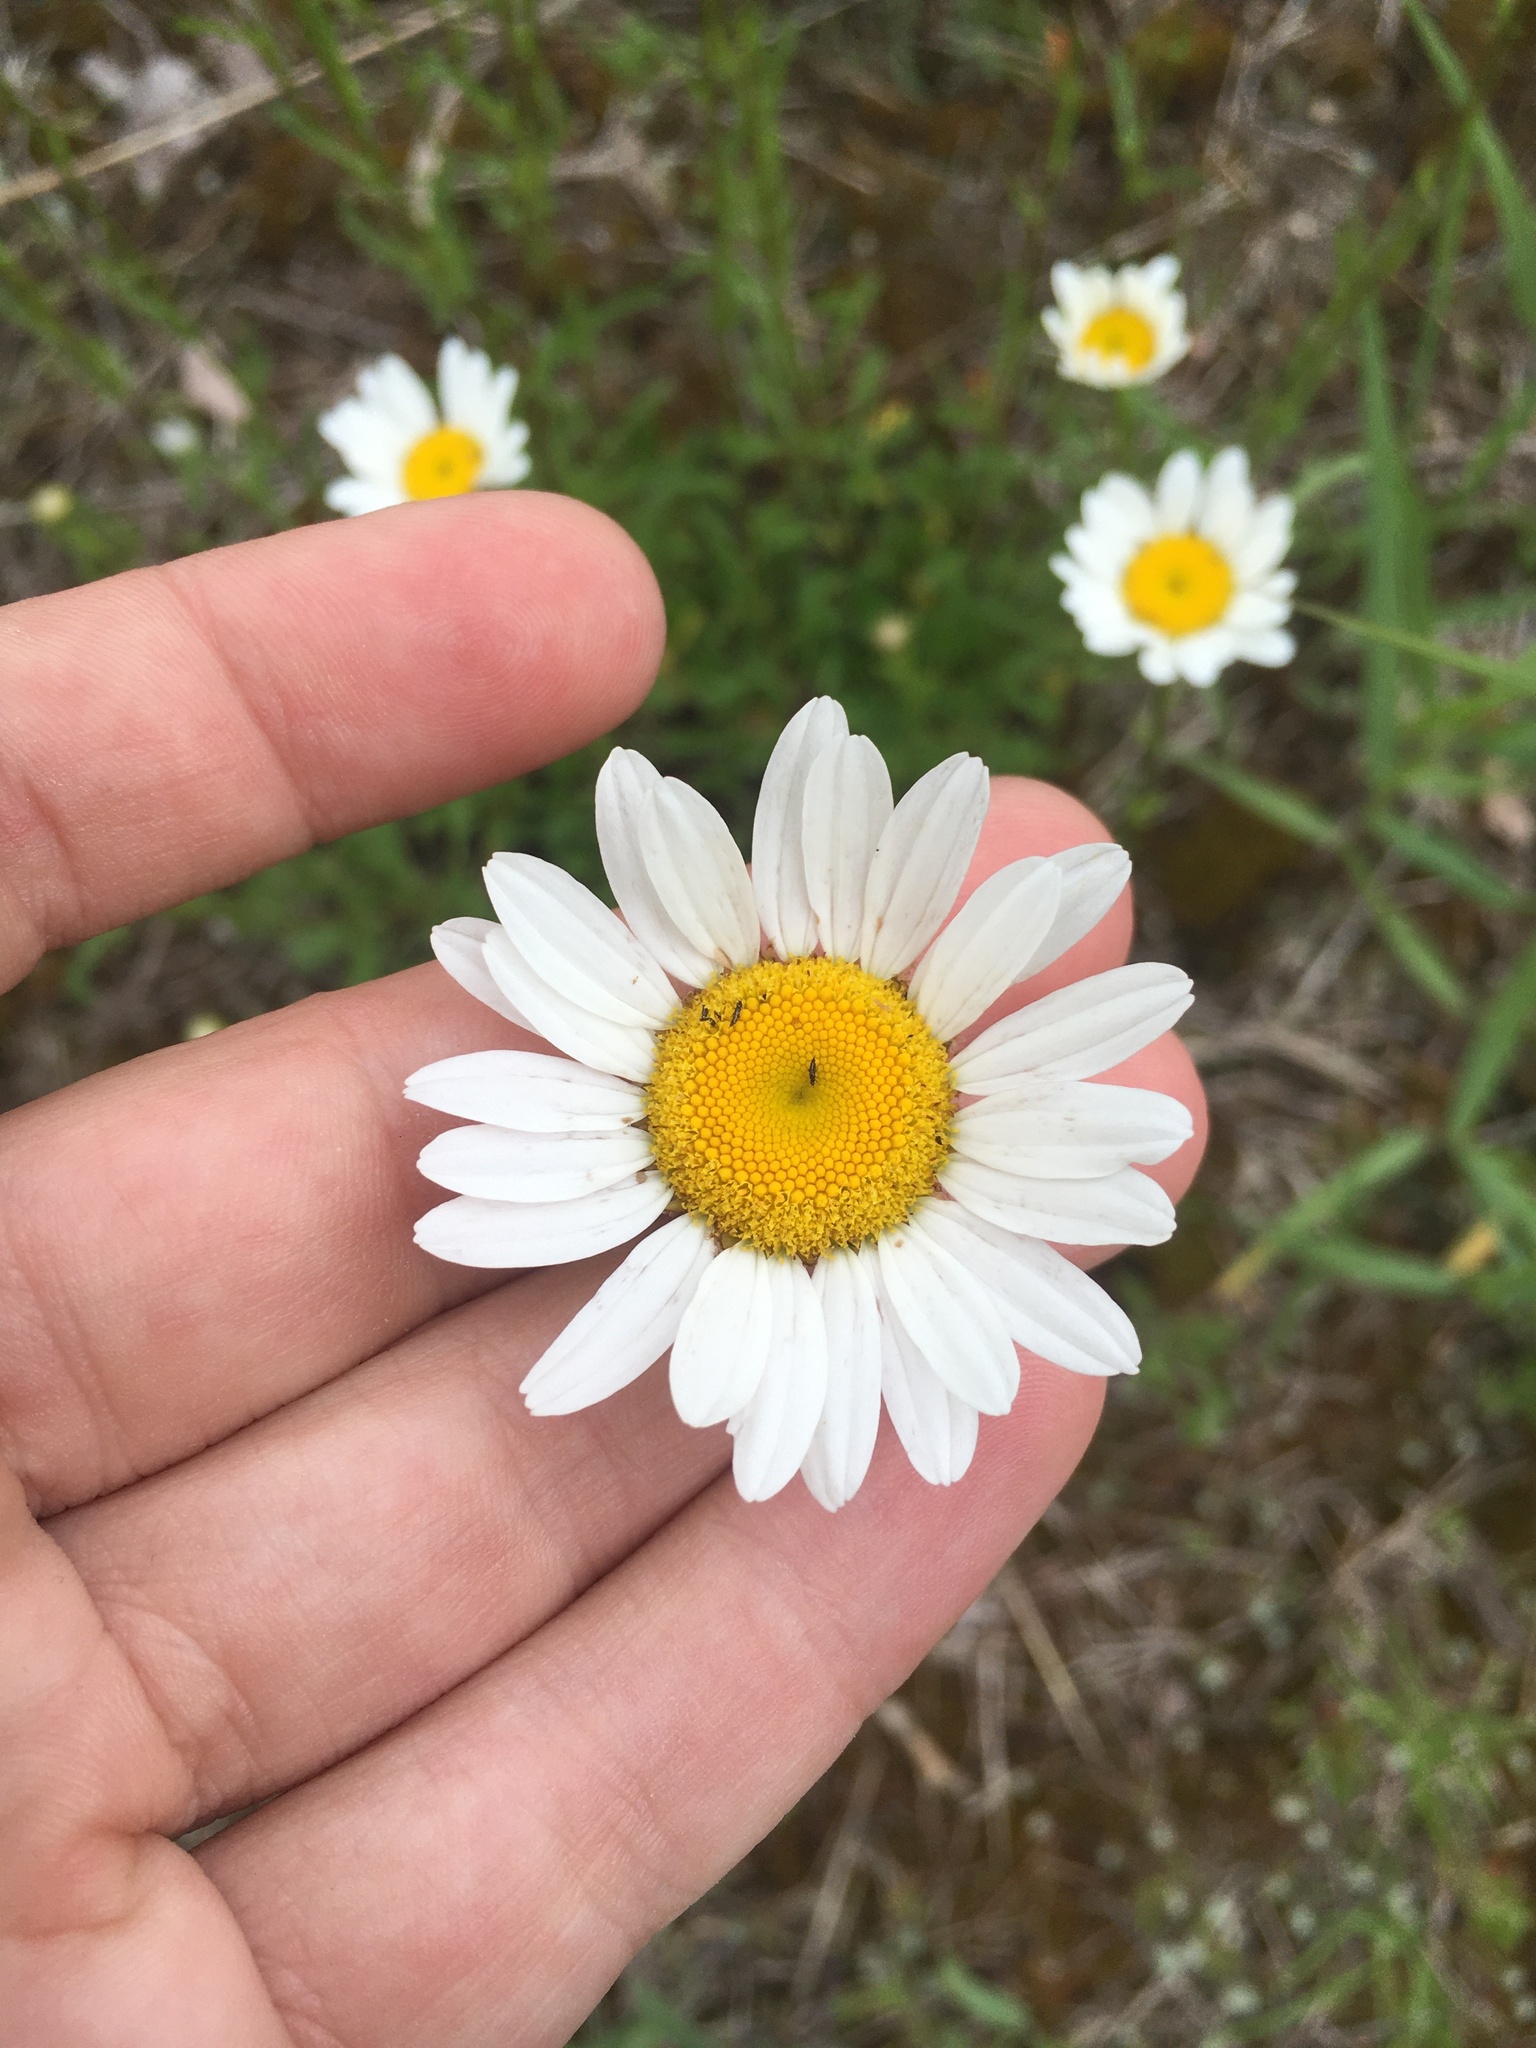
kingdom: Plantae
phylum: Tracheophyta
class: Magnoliopsida
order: Asterales
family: Asteraceae
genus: Leucanthemum
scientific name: Leucanthemum vulgare
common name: Oxeye daisy
